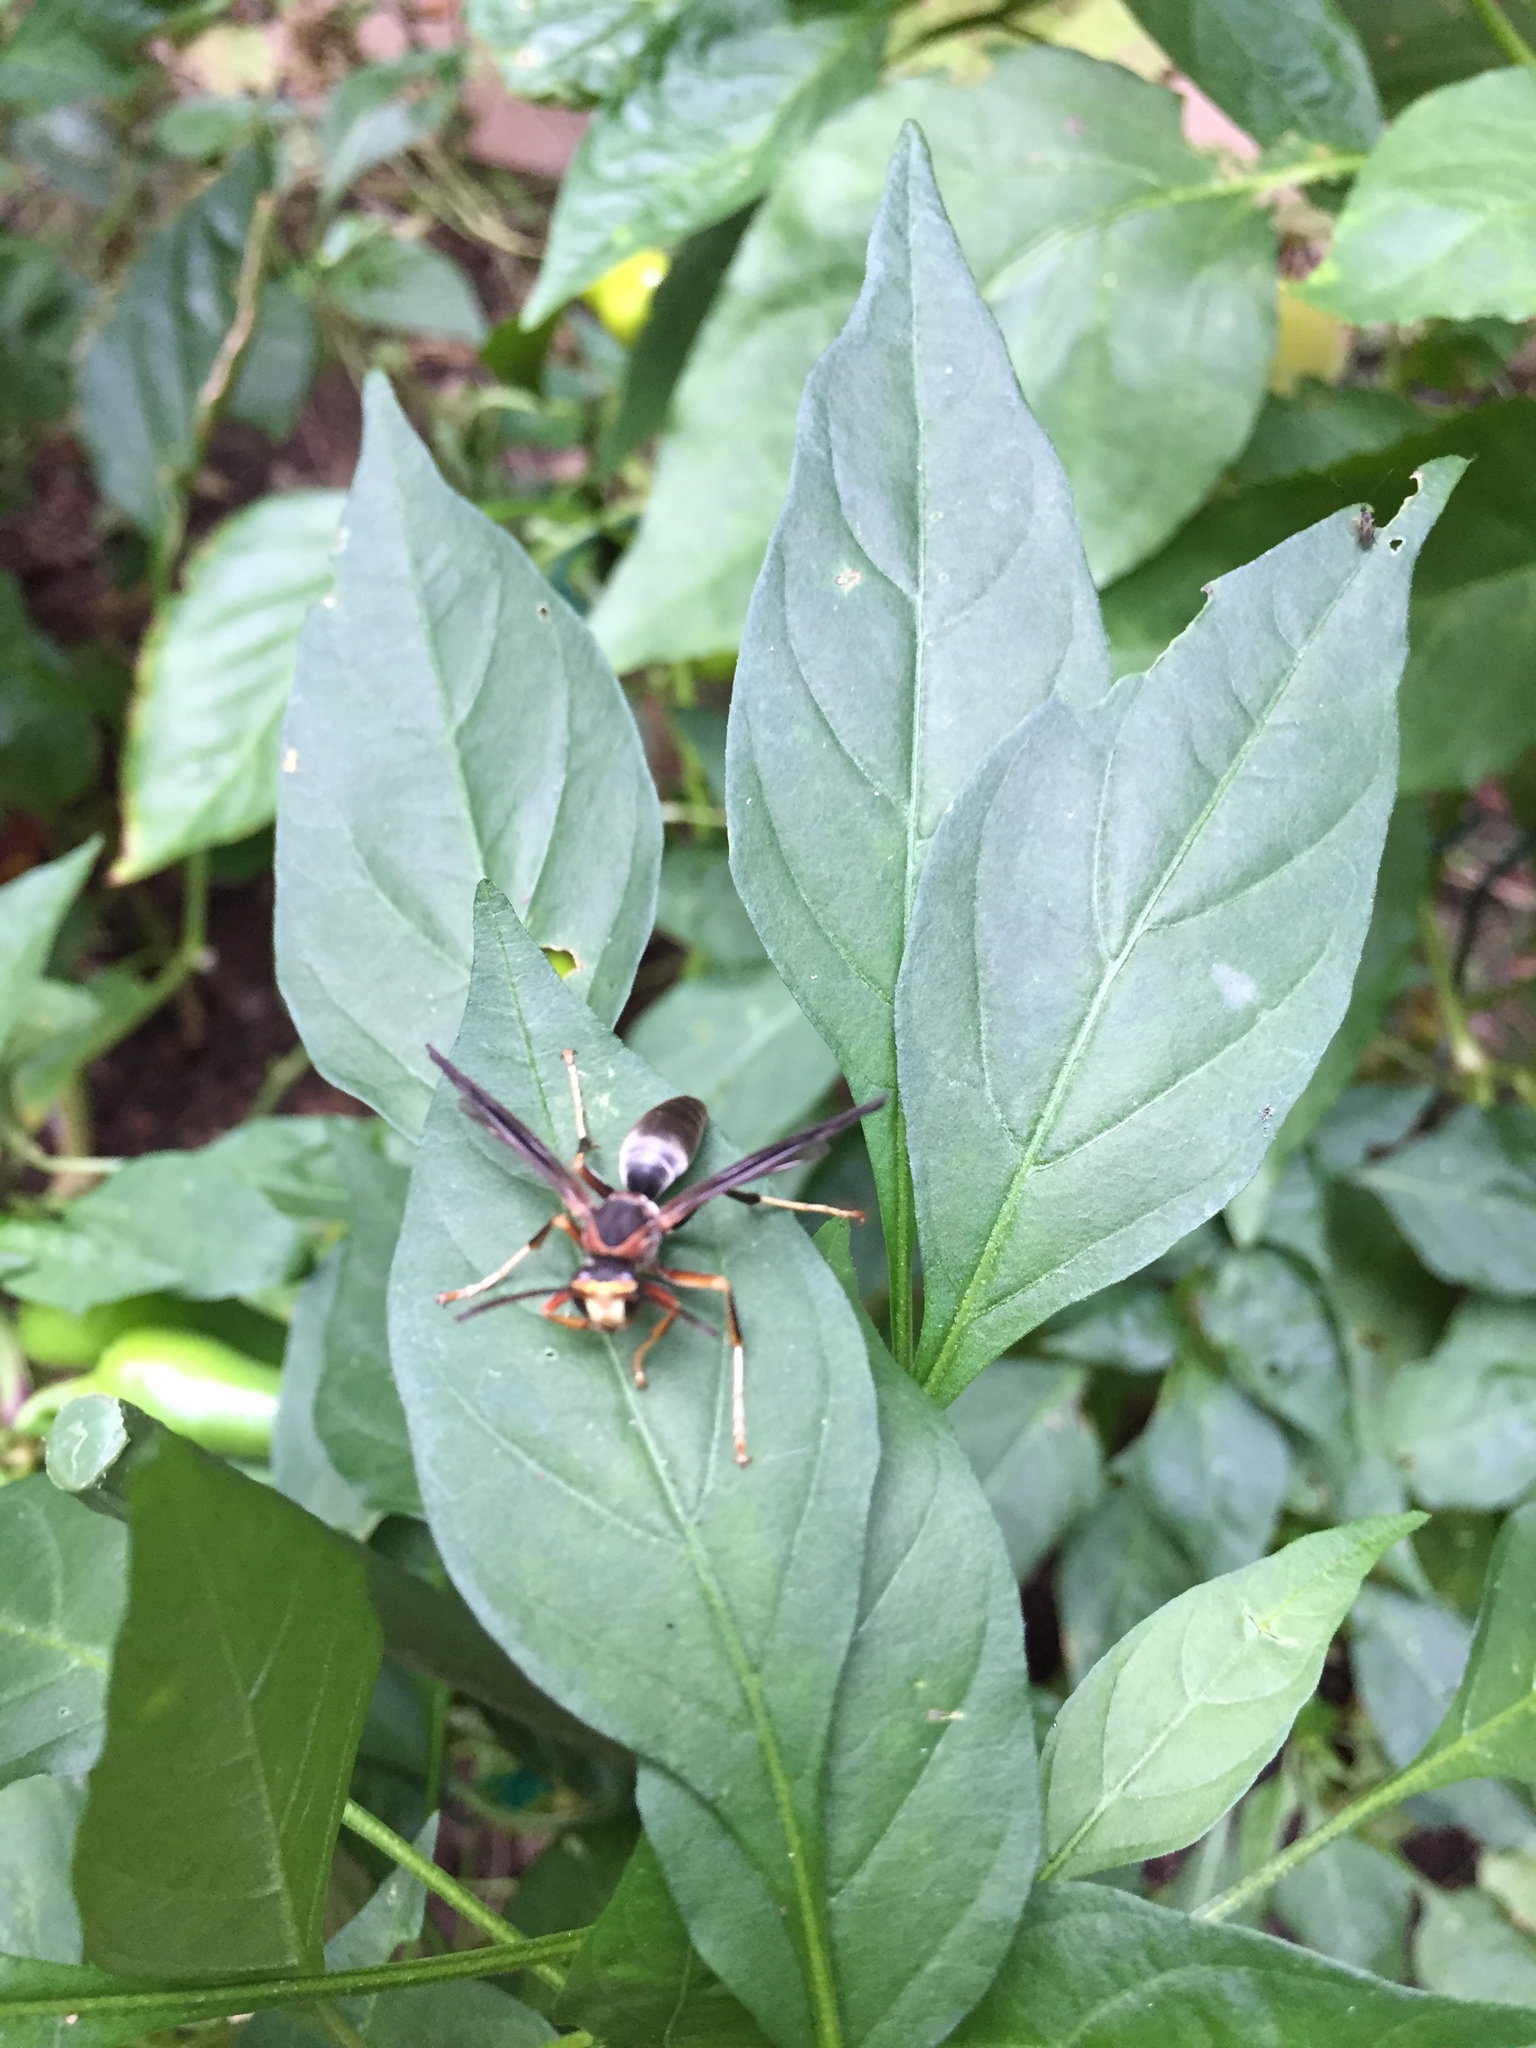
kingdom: Animalia
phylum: Arthropoda
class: Insecta
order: Hymenoptera
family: Vespidae
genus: Fuscopolistes
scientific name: Fuscopolistes
